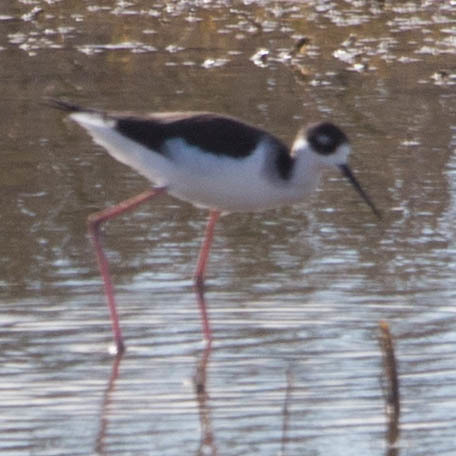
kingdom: Animalia
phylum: Chordata
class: Aves
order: Charadriiformes
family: Recurvirostridae
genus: Himantopus
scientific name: Himantopus mexicanus
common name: Black-necked stilt
